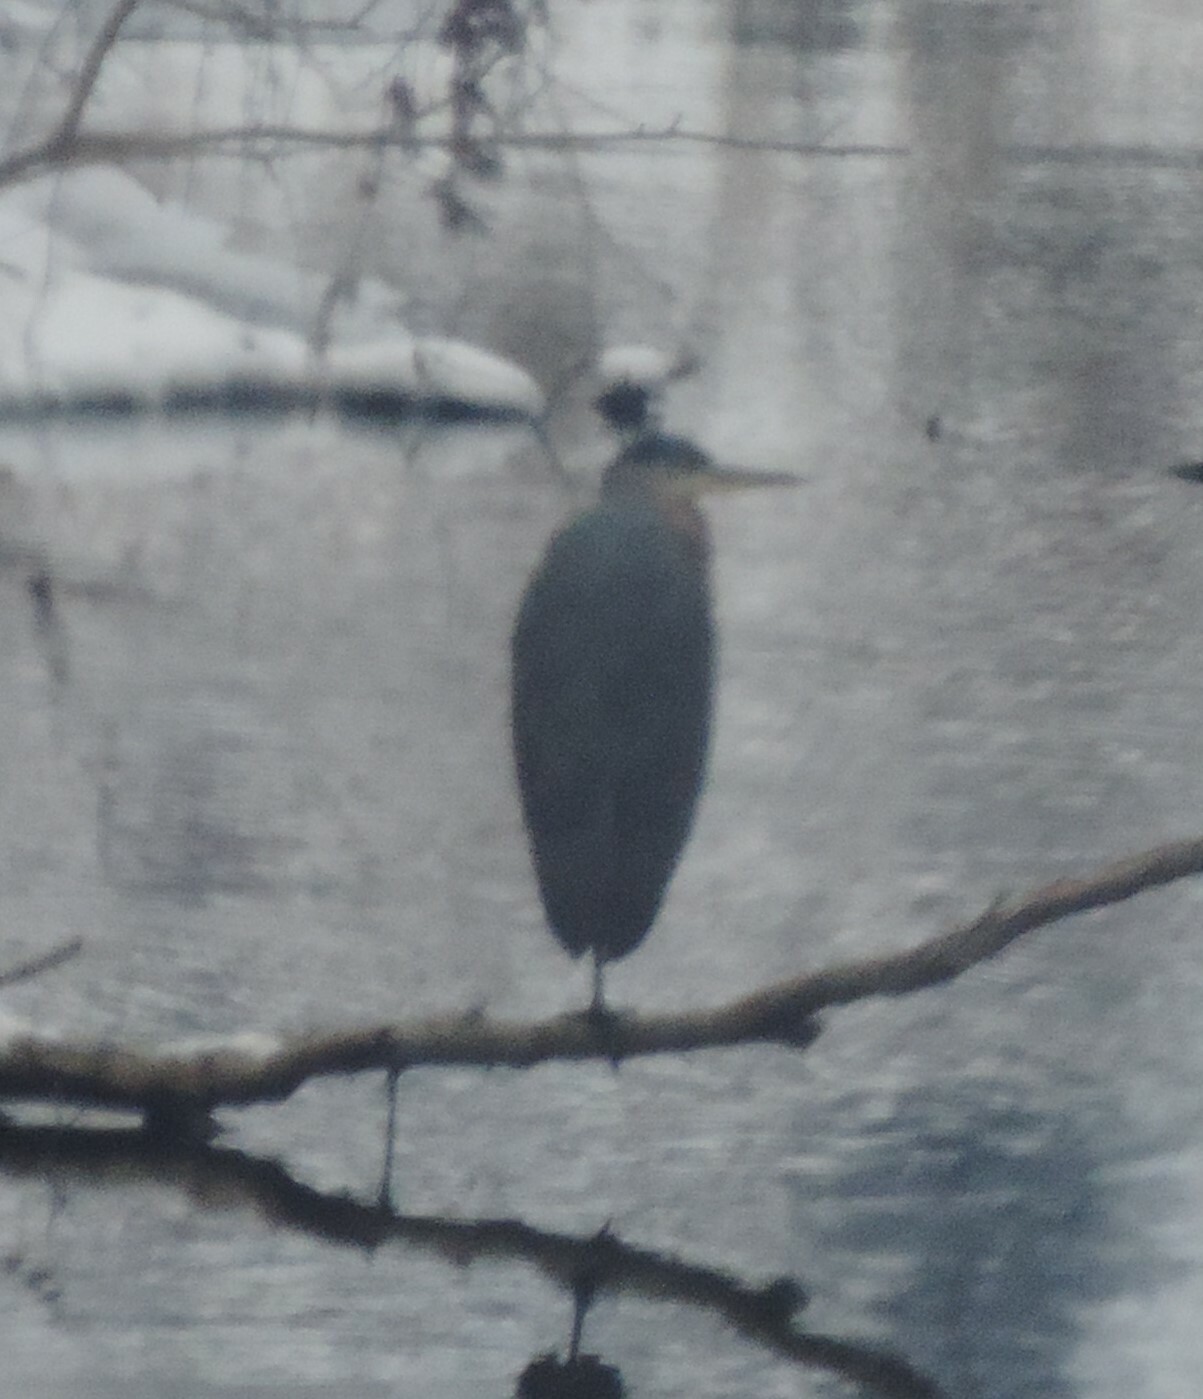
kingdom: Animalia
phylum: Chordata
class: Aves
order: Pelecaniformes
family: Ardeidae
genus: Ardea
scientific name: Ardea herodias
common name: Great blue heron
